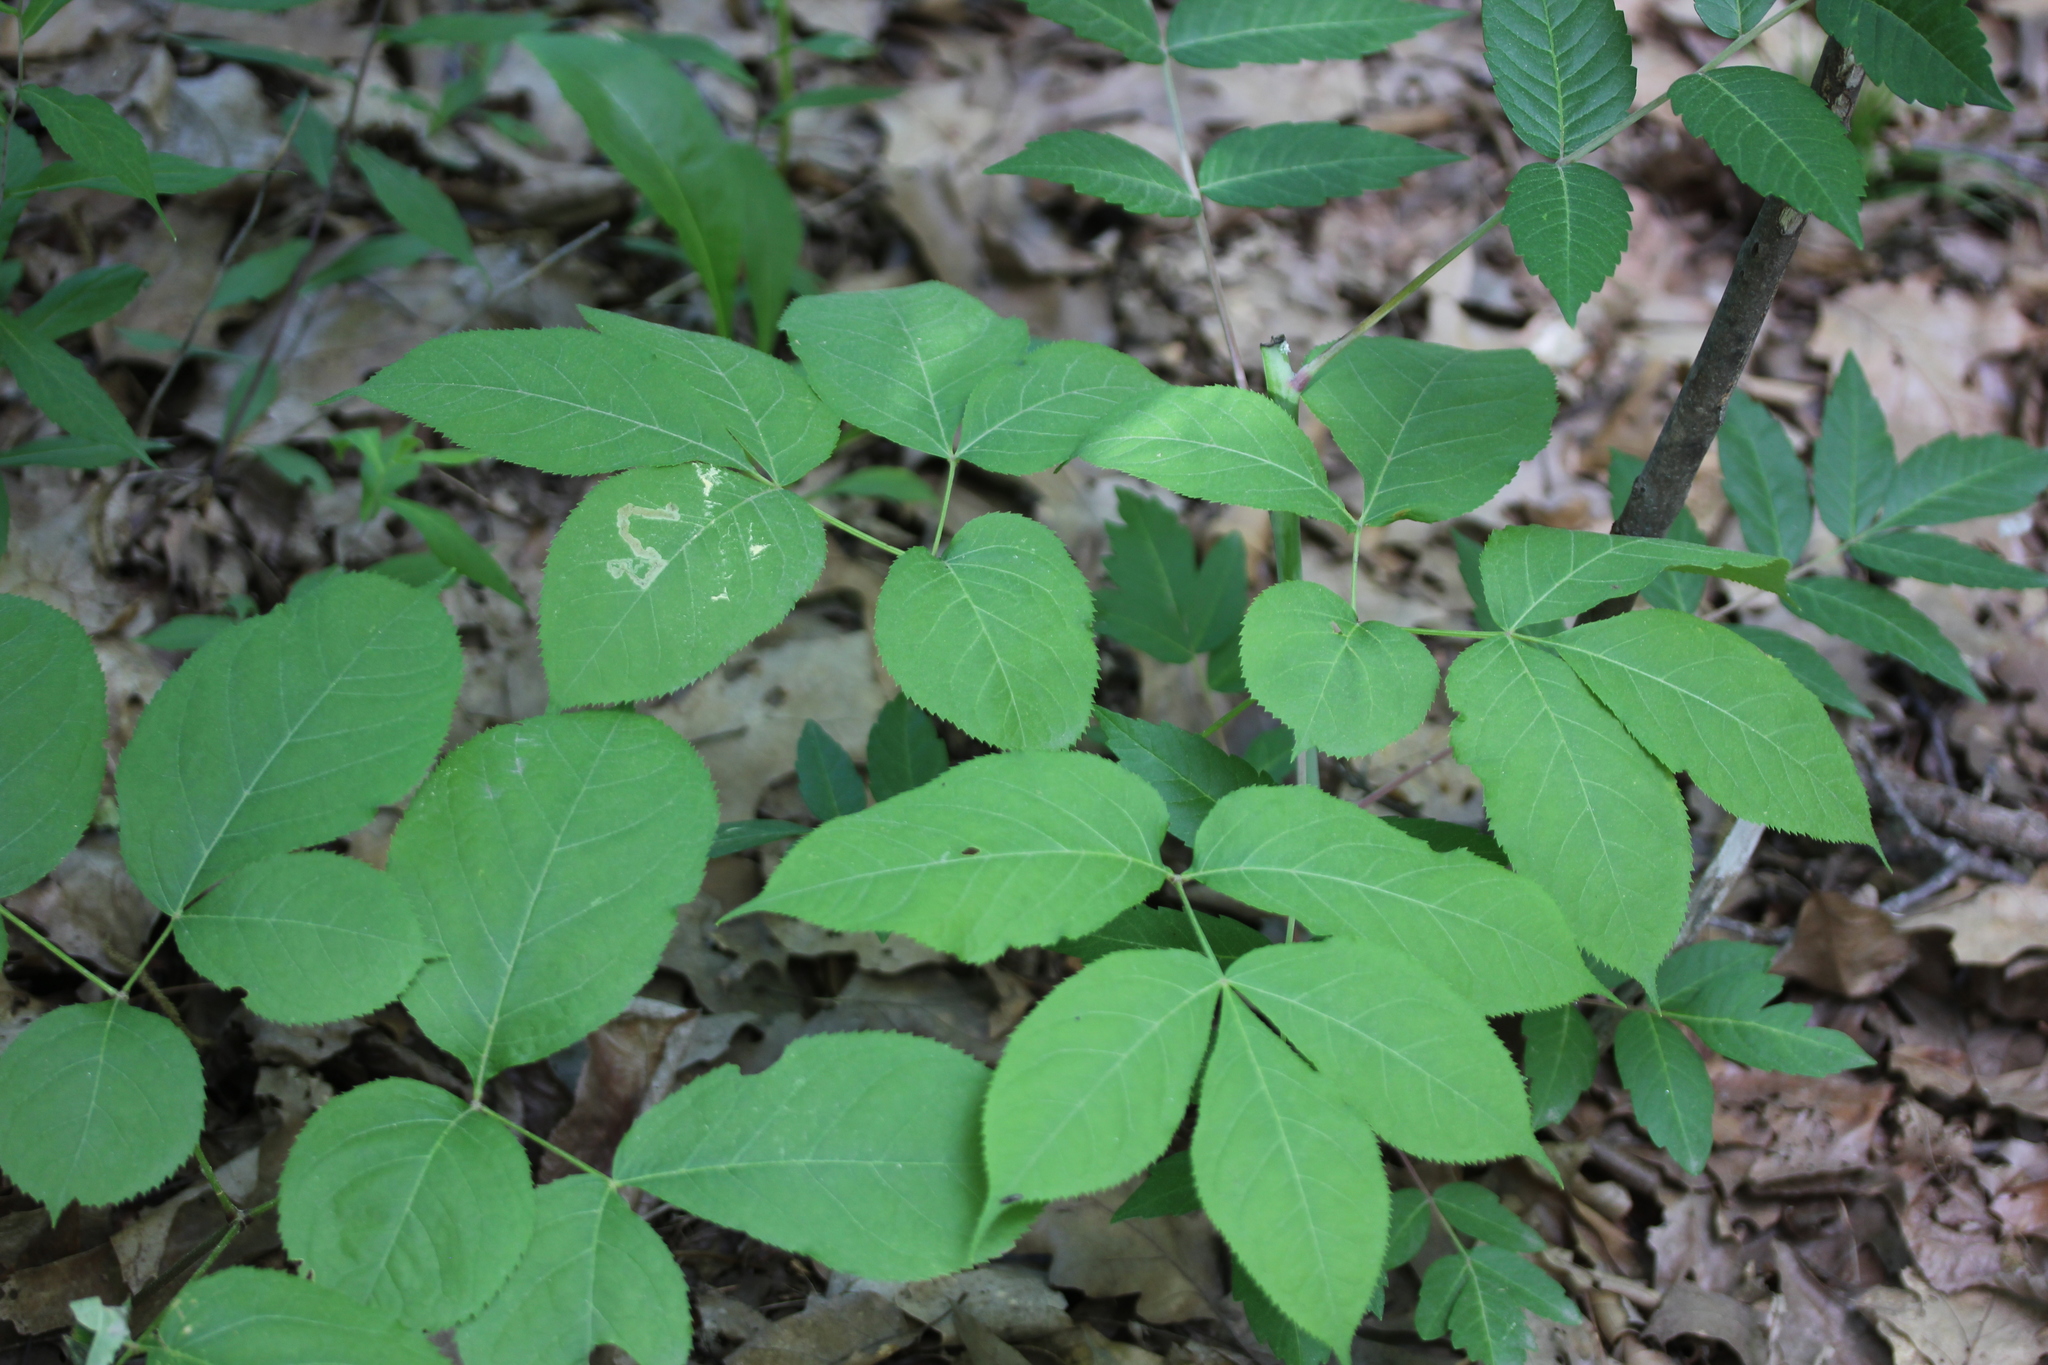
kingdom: Plantae
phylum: Tracheophyta
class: Magnoliopsida
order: Apiales
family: Araliaceae
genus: Aralia
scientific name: Aralia nudicaulis
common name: Wild sarsaparilla
